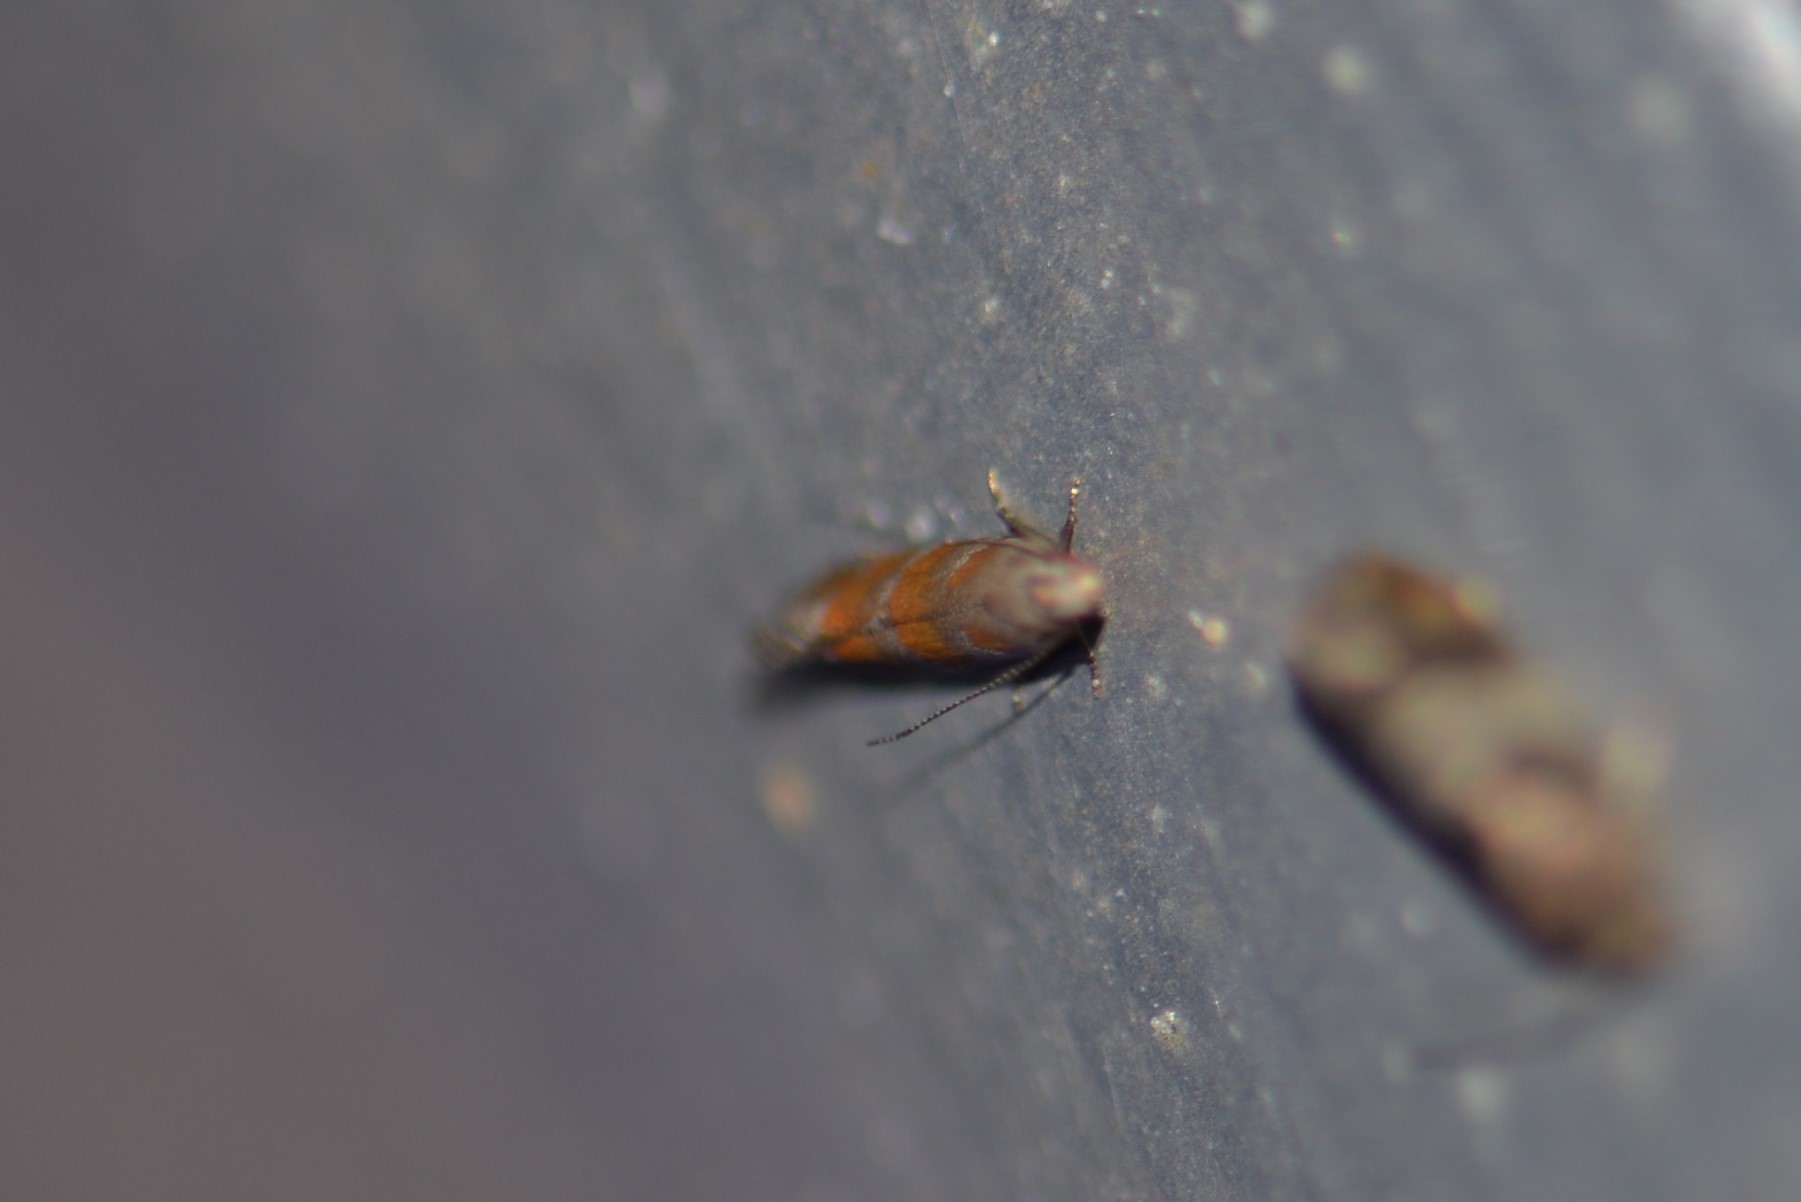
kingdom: Animalia
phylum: Arthropoda
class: Insecta
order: Lepidoptera
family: Gelechiidae
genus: Battaristis
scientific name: Battaristis vittella
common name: Orange stripe-backed moth
